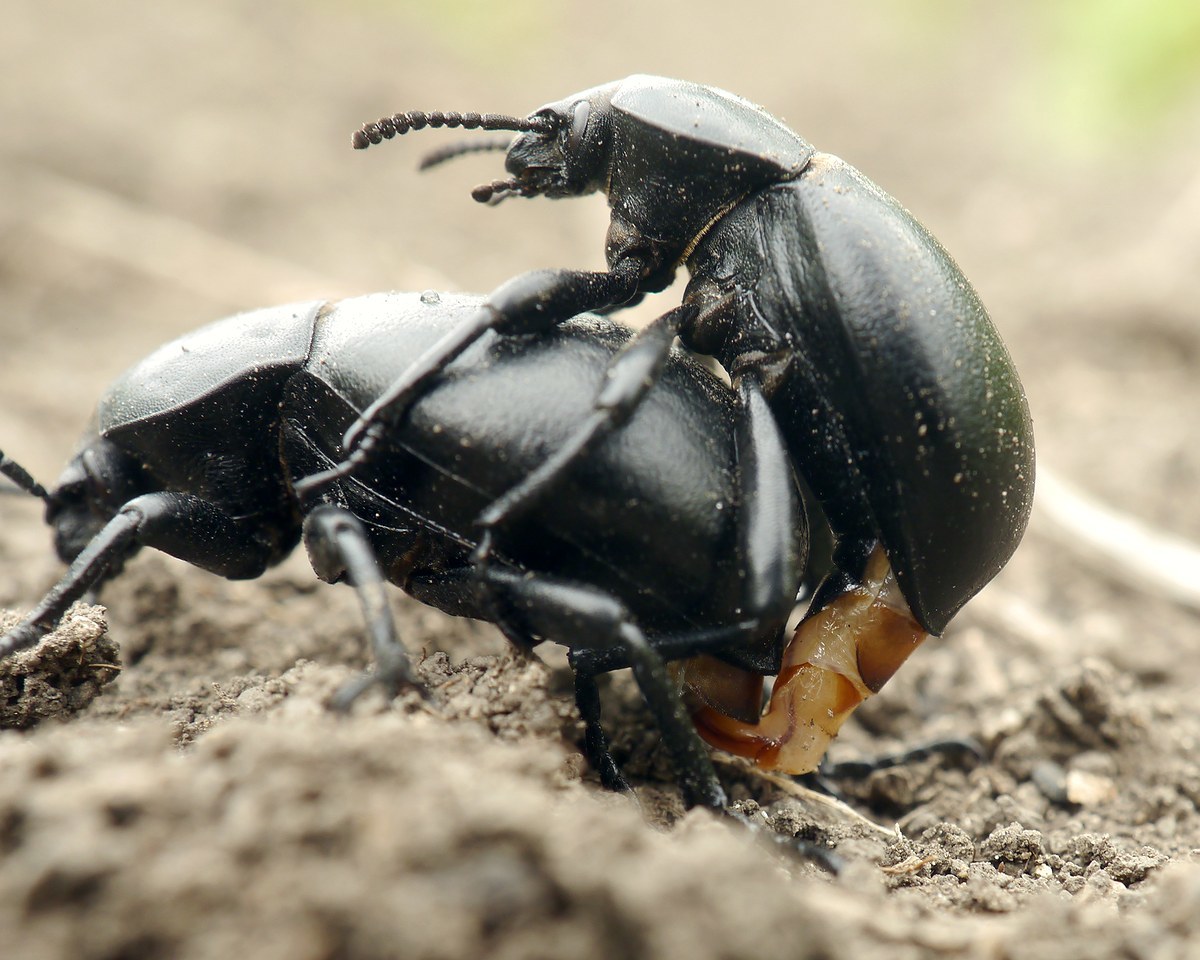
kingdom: Animalia
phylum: Arthropoda
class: Insecta
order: Coleoptera
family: Tenebrionidae
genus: Gnaptor
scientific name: Gnaptor spinimanus
